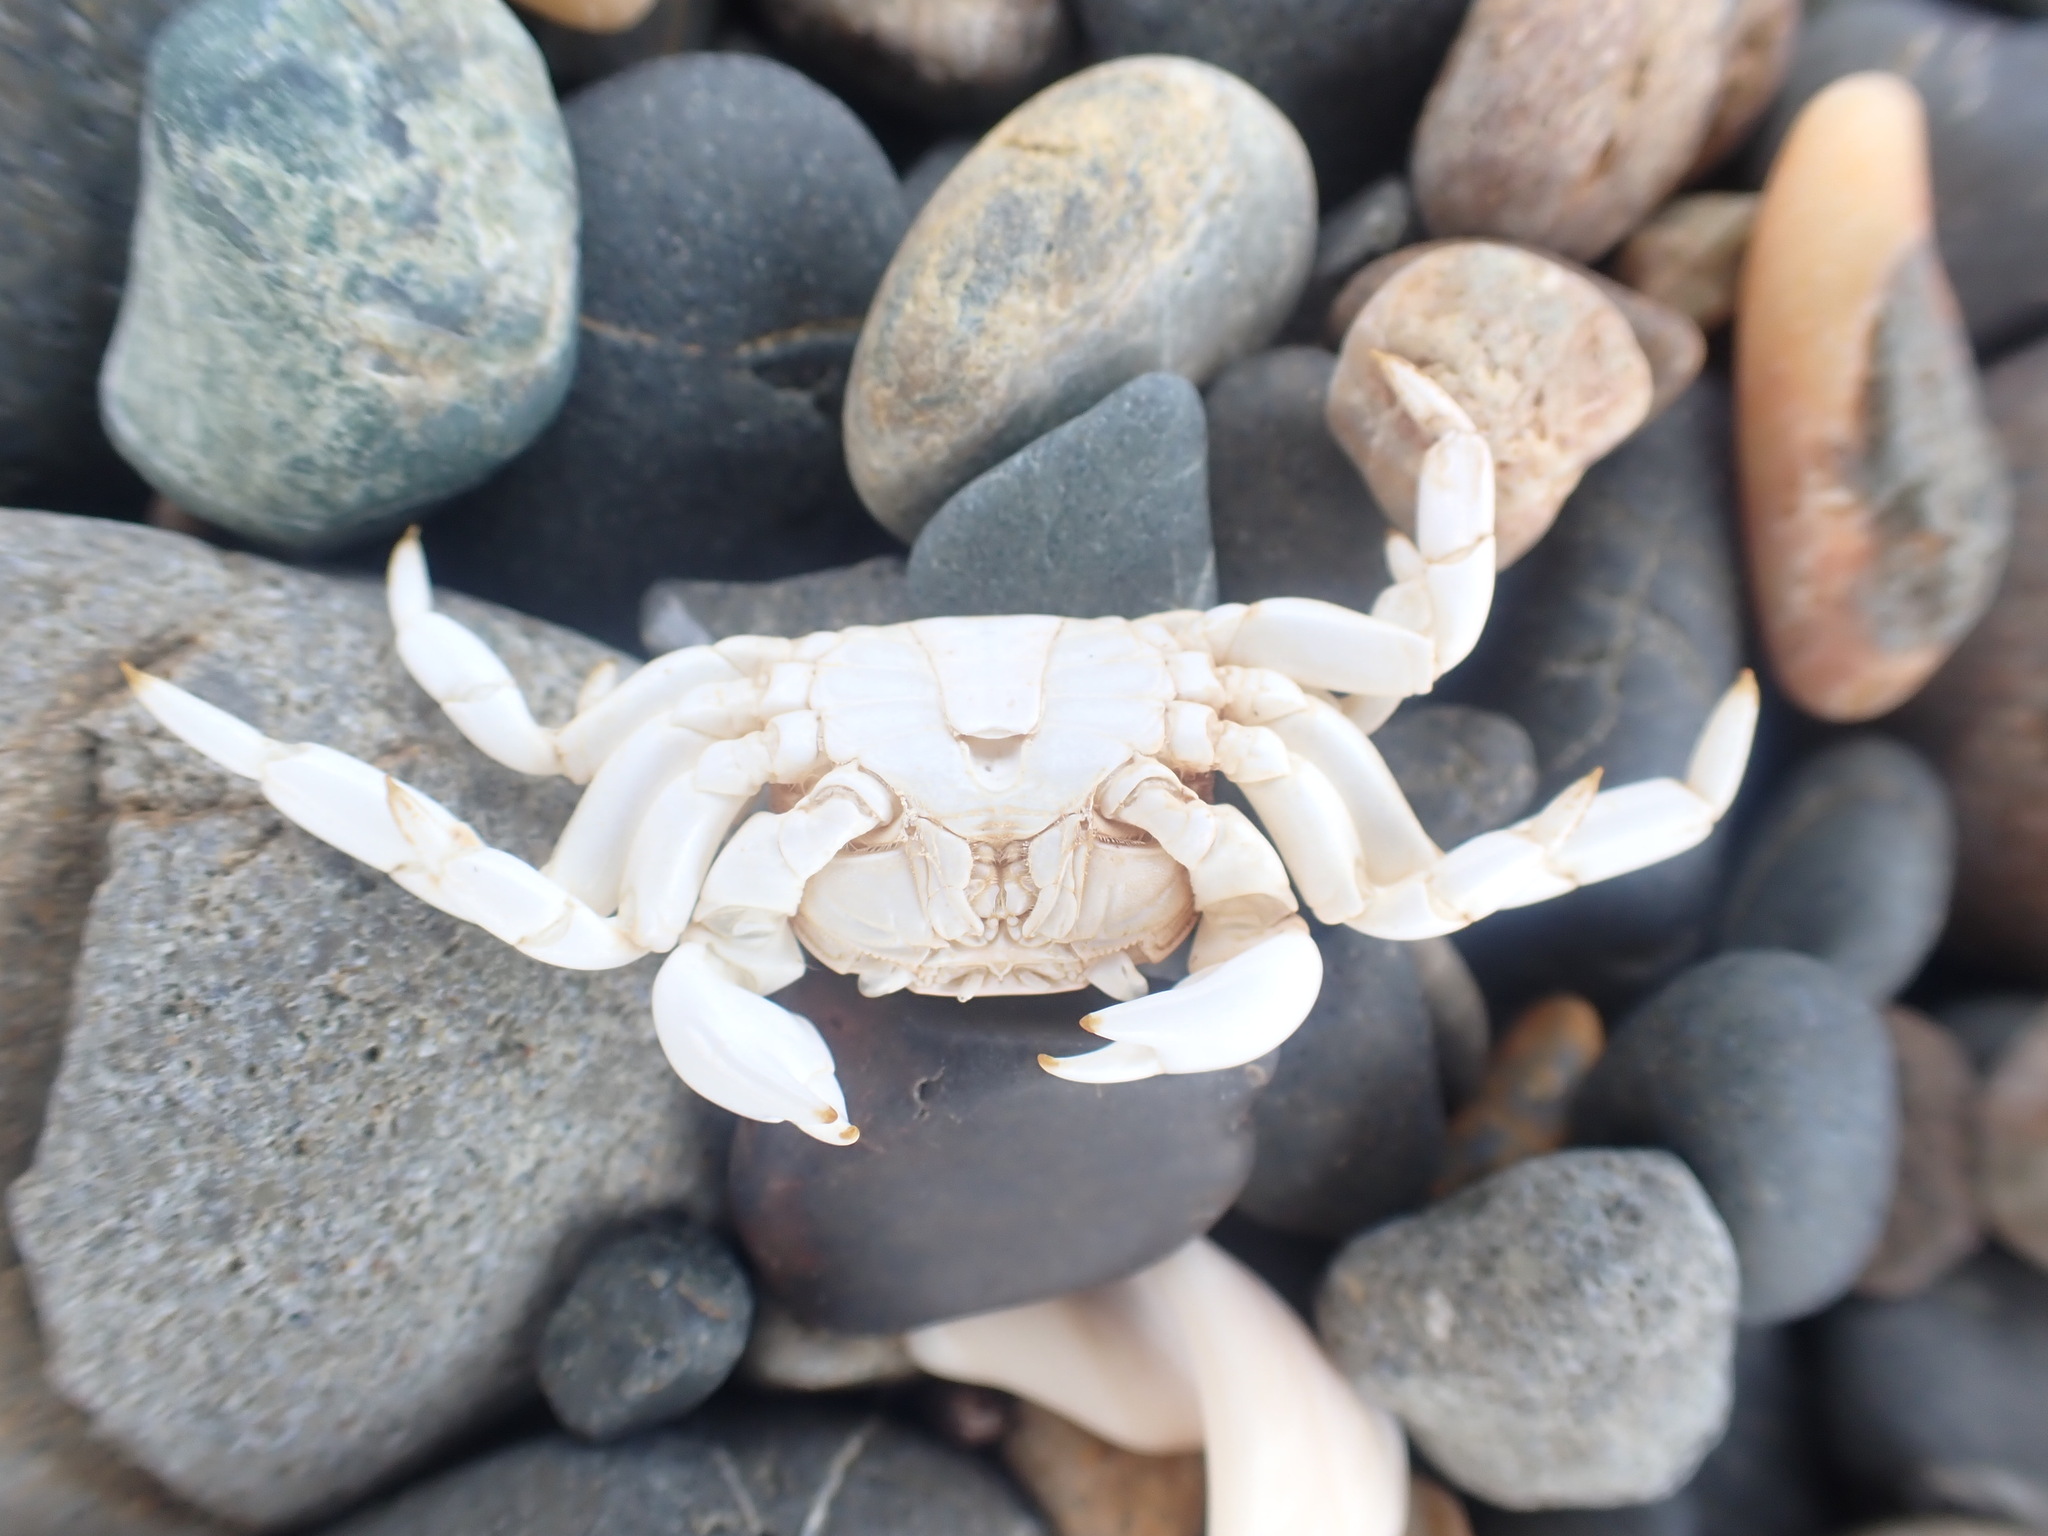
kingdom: Animalia
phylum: Arthropoda
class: Malacostraca
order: Decapoda
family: Varunidae
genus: Cyclograpsus
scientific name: Cyclograpsus insularum
